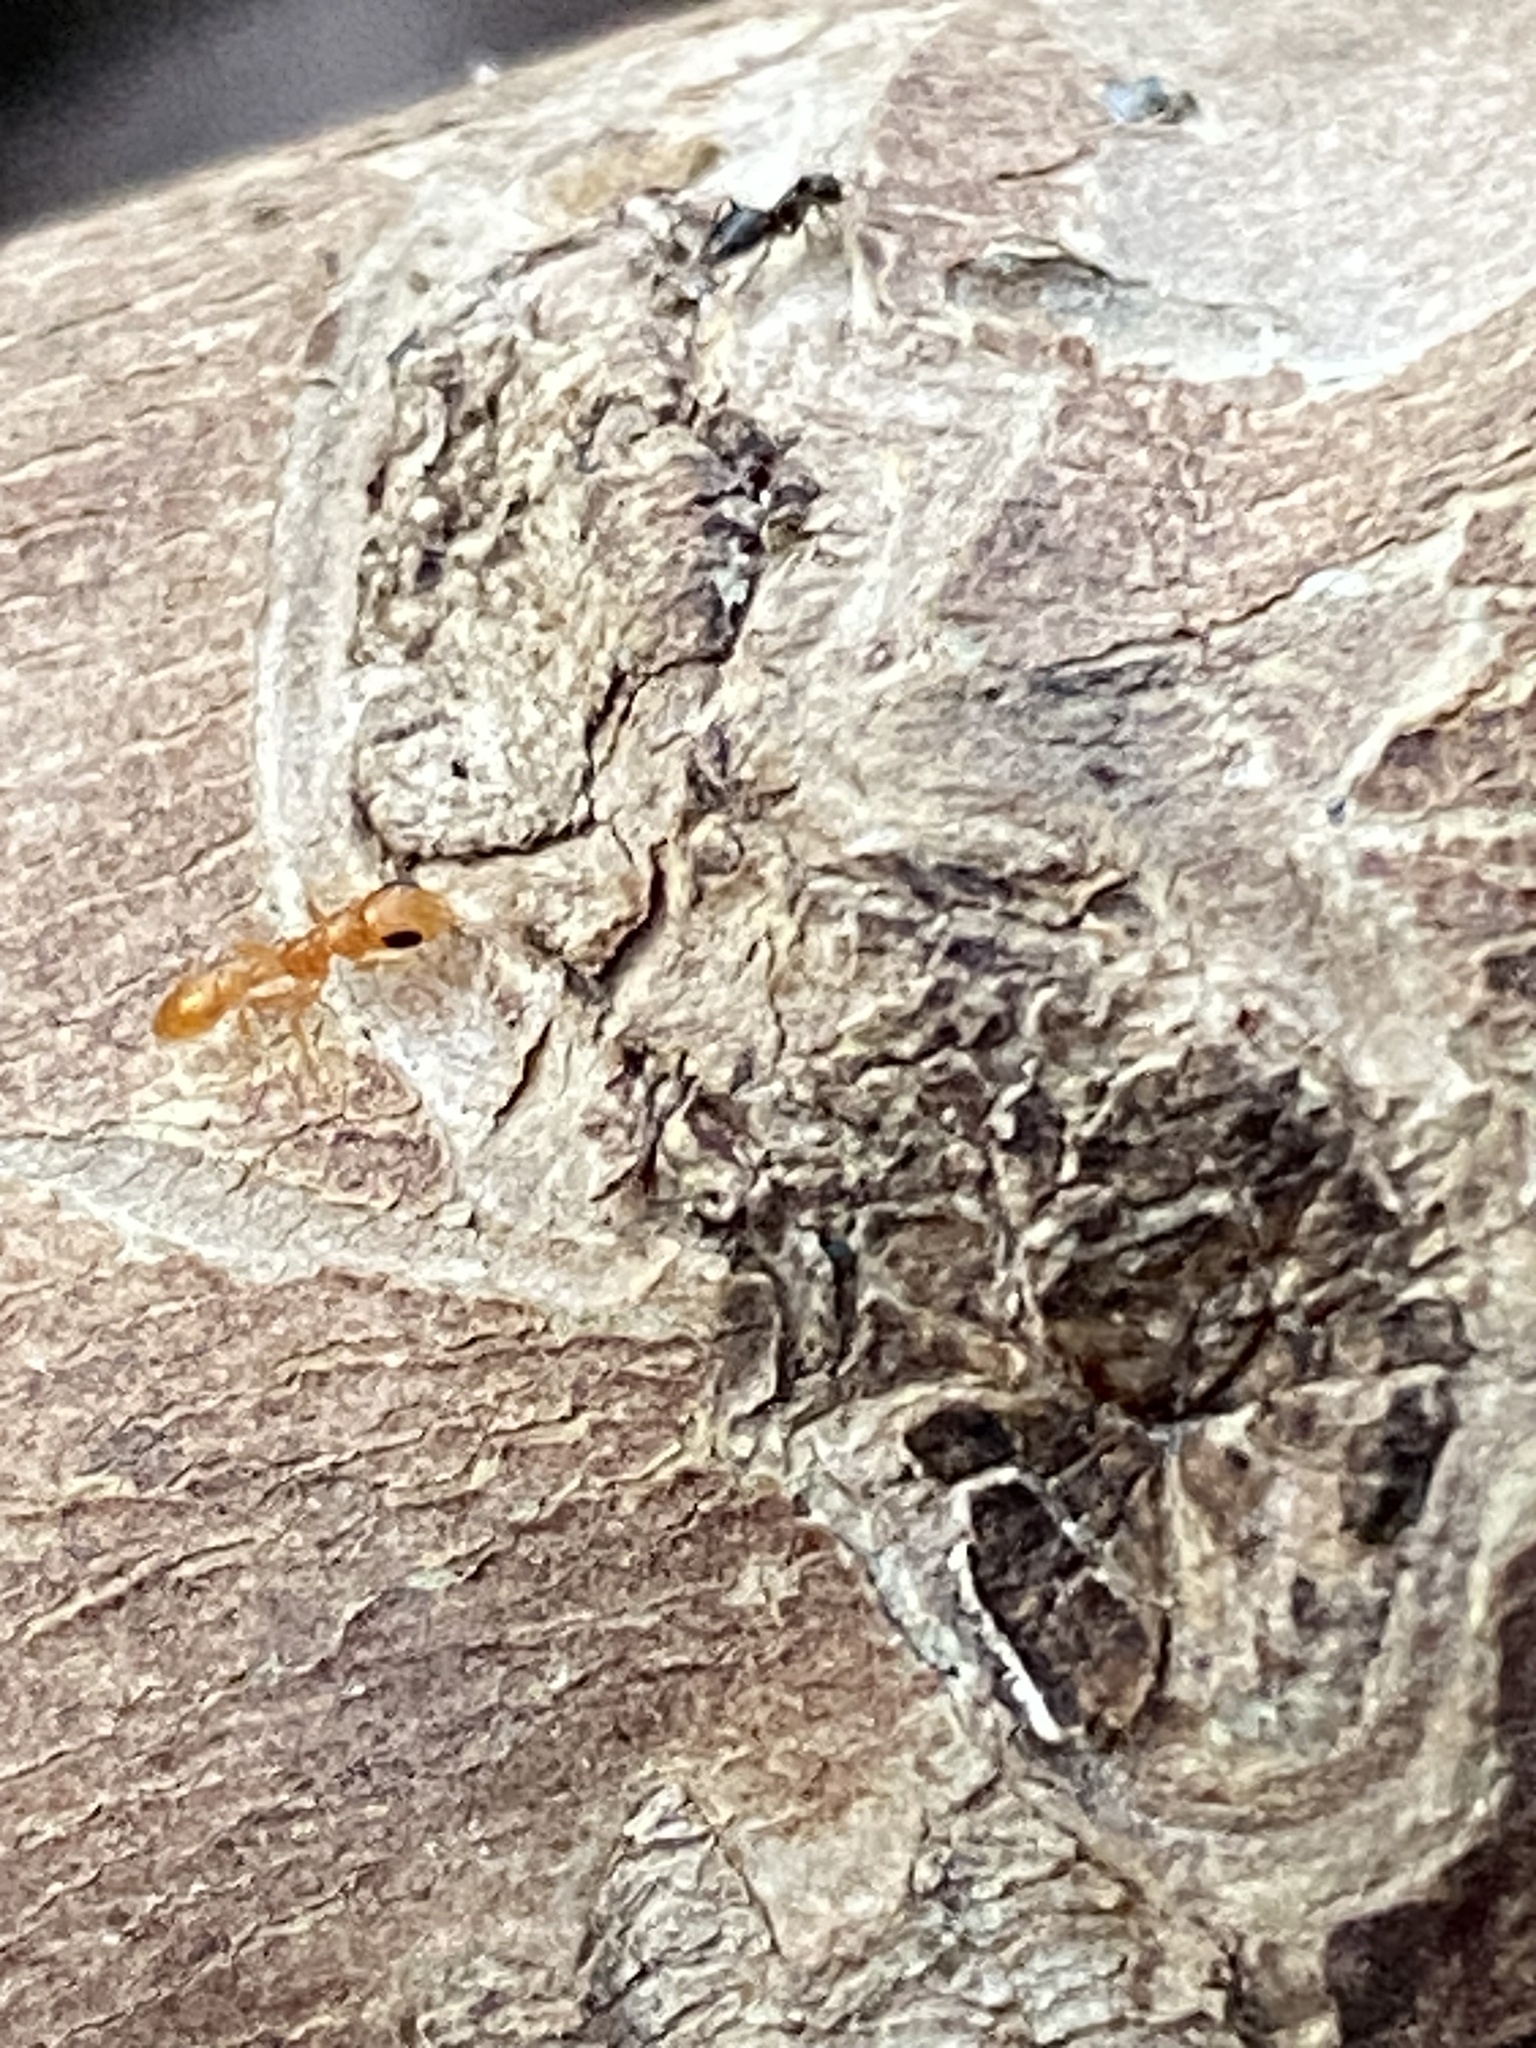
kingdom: Animalia
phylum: Arthropoda
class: Insecta
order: Hymenoptera
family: Formicidae
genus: Pseudomyrmex
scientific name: Pseudomyrmex pallidus
